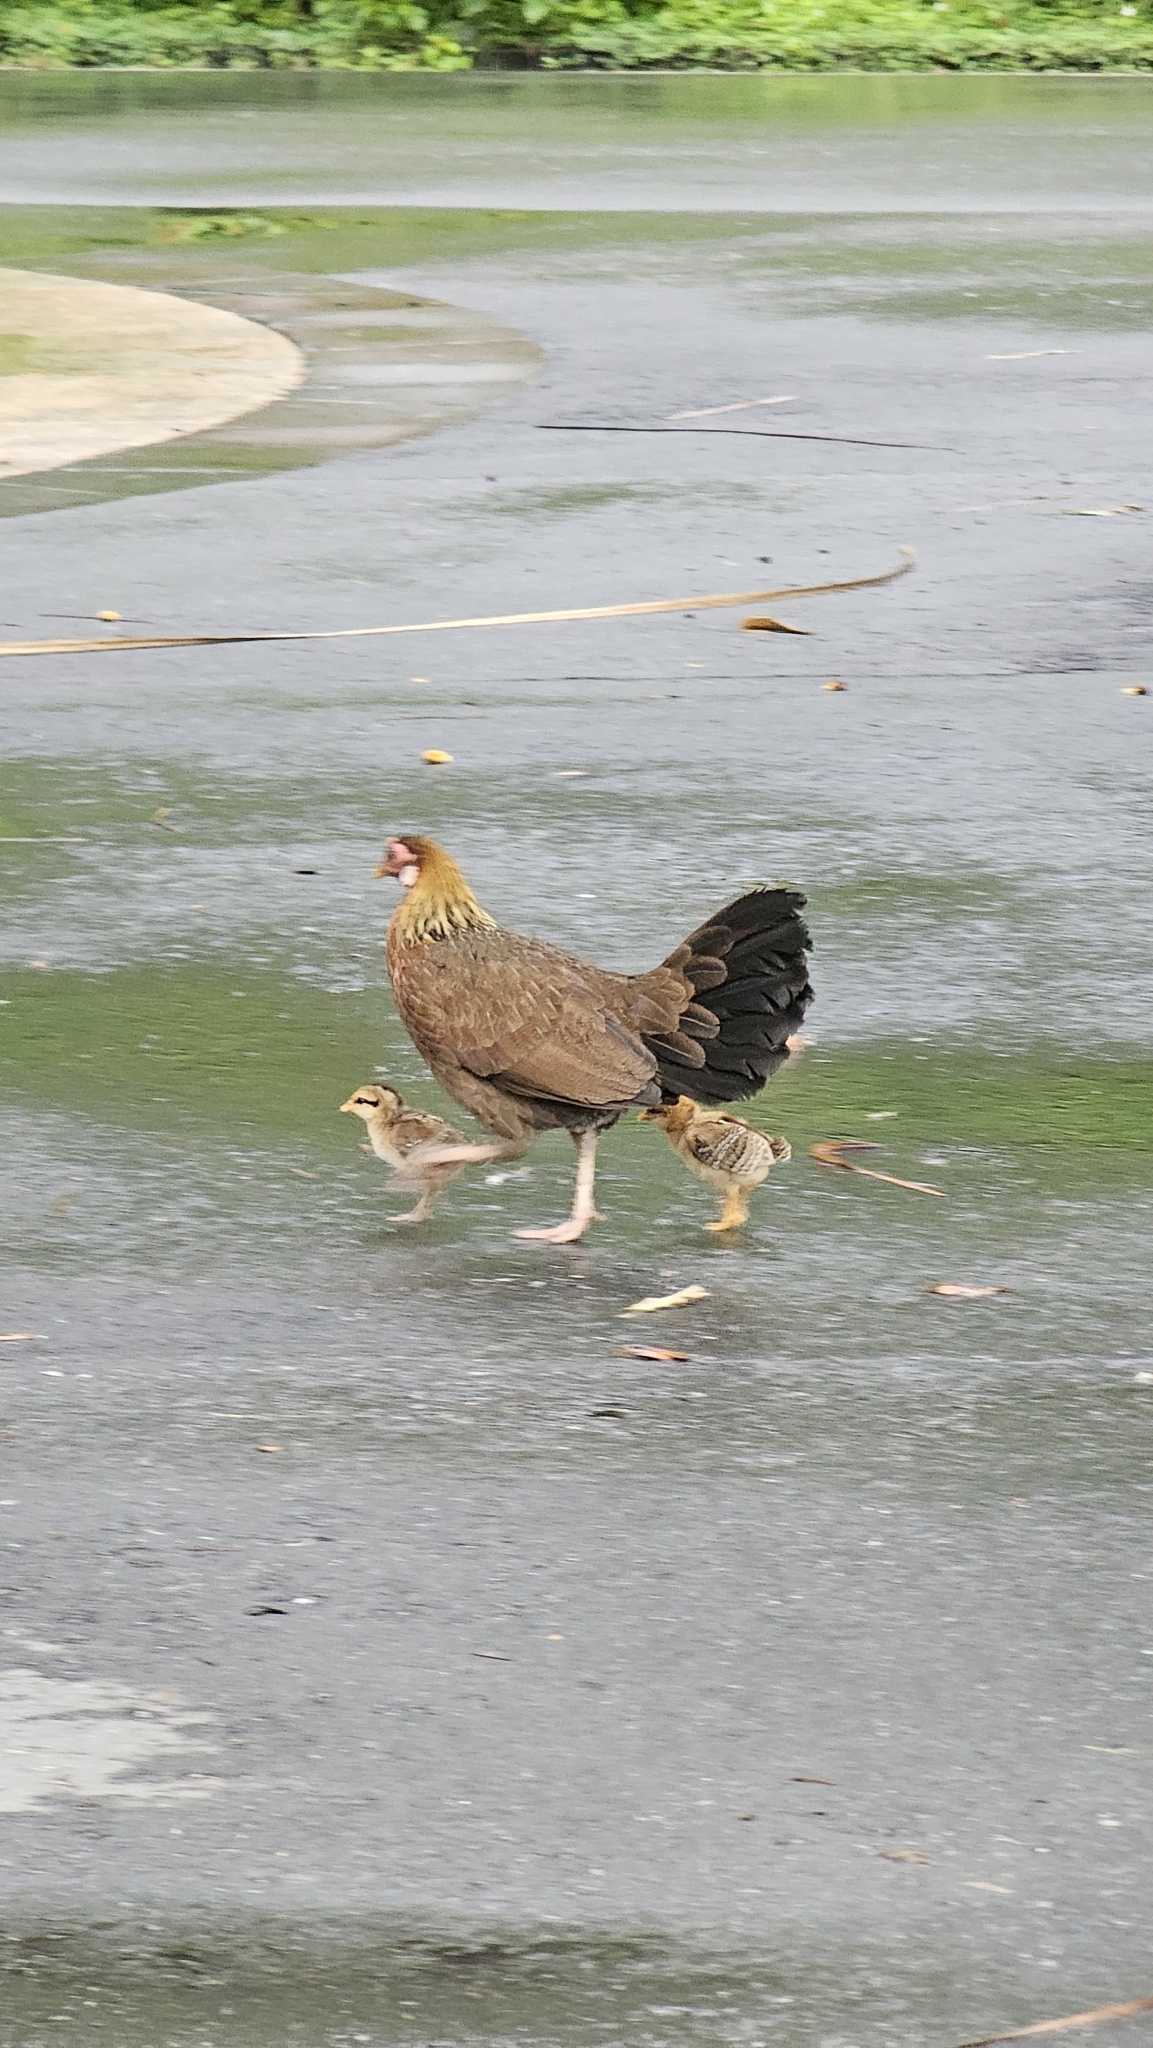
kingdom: Animalia
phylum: Chordata
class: Aves
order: Galliformes
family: Phasianidae
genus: Gallus
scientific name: Gallus gallus
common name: Red junglefowl
